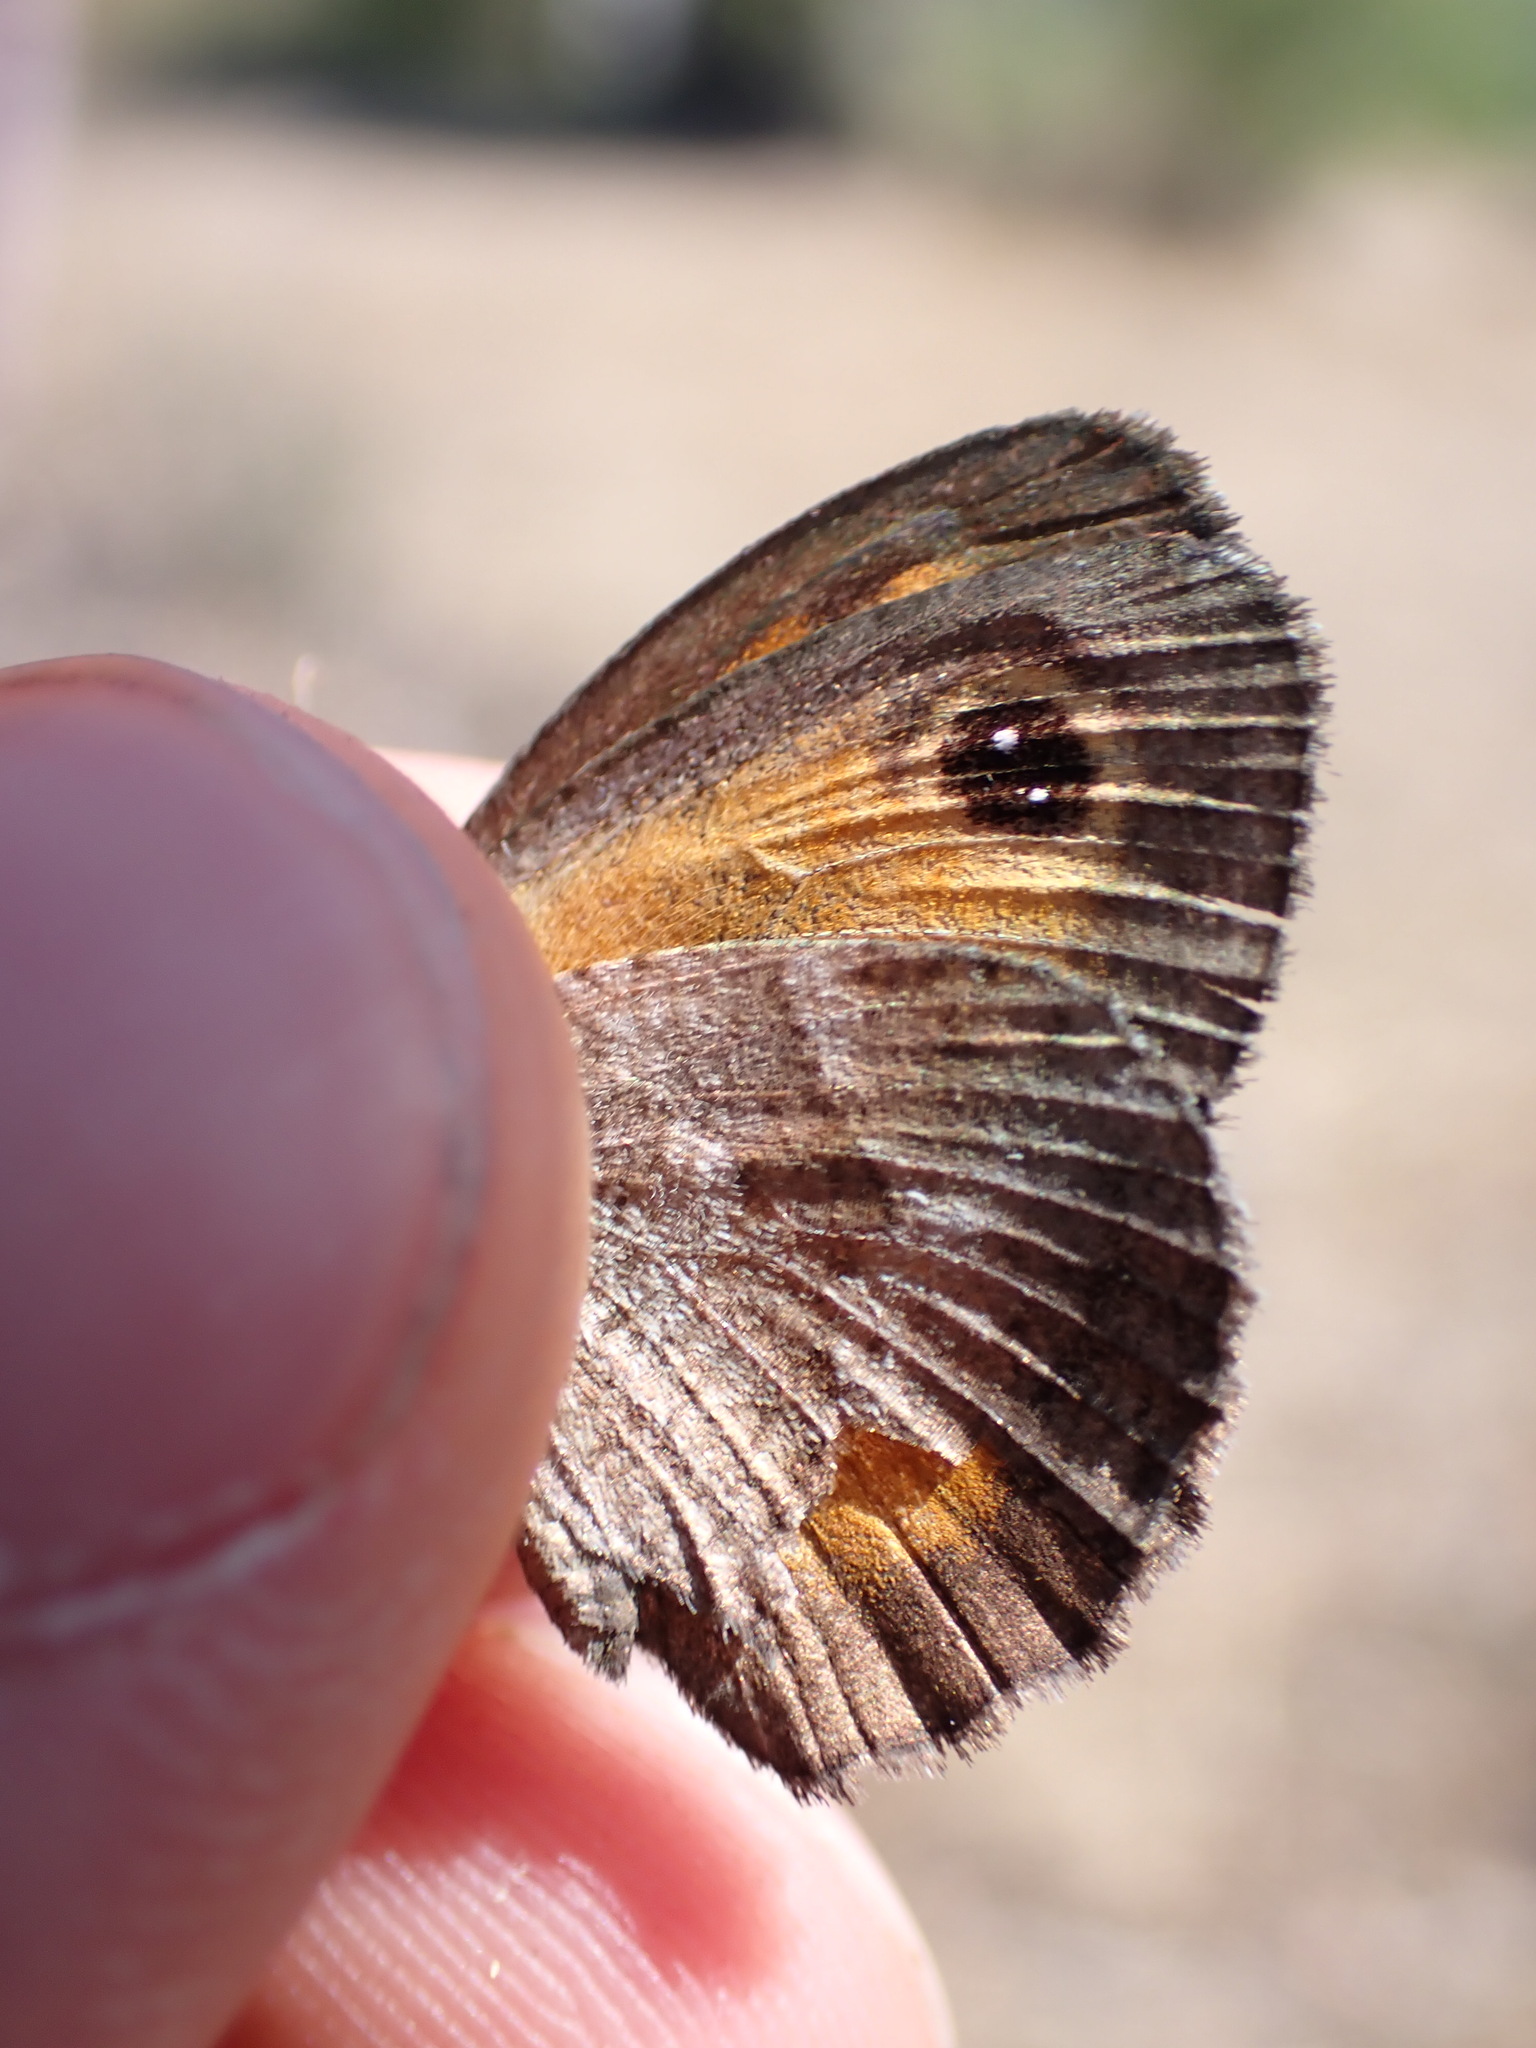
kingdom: Animalia
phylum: Arthropoda
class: Insecta
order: Lepidoptera
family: Nymphalidae
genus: Pyronia
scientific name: Pyronia cecilia
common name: Southern gatekeeper
